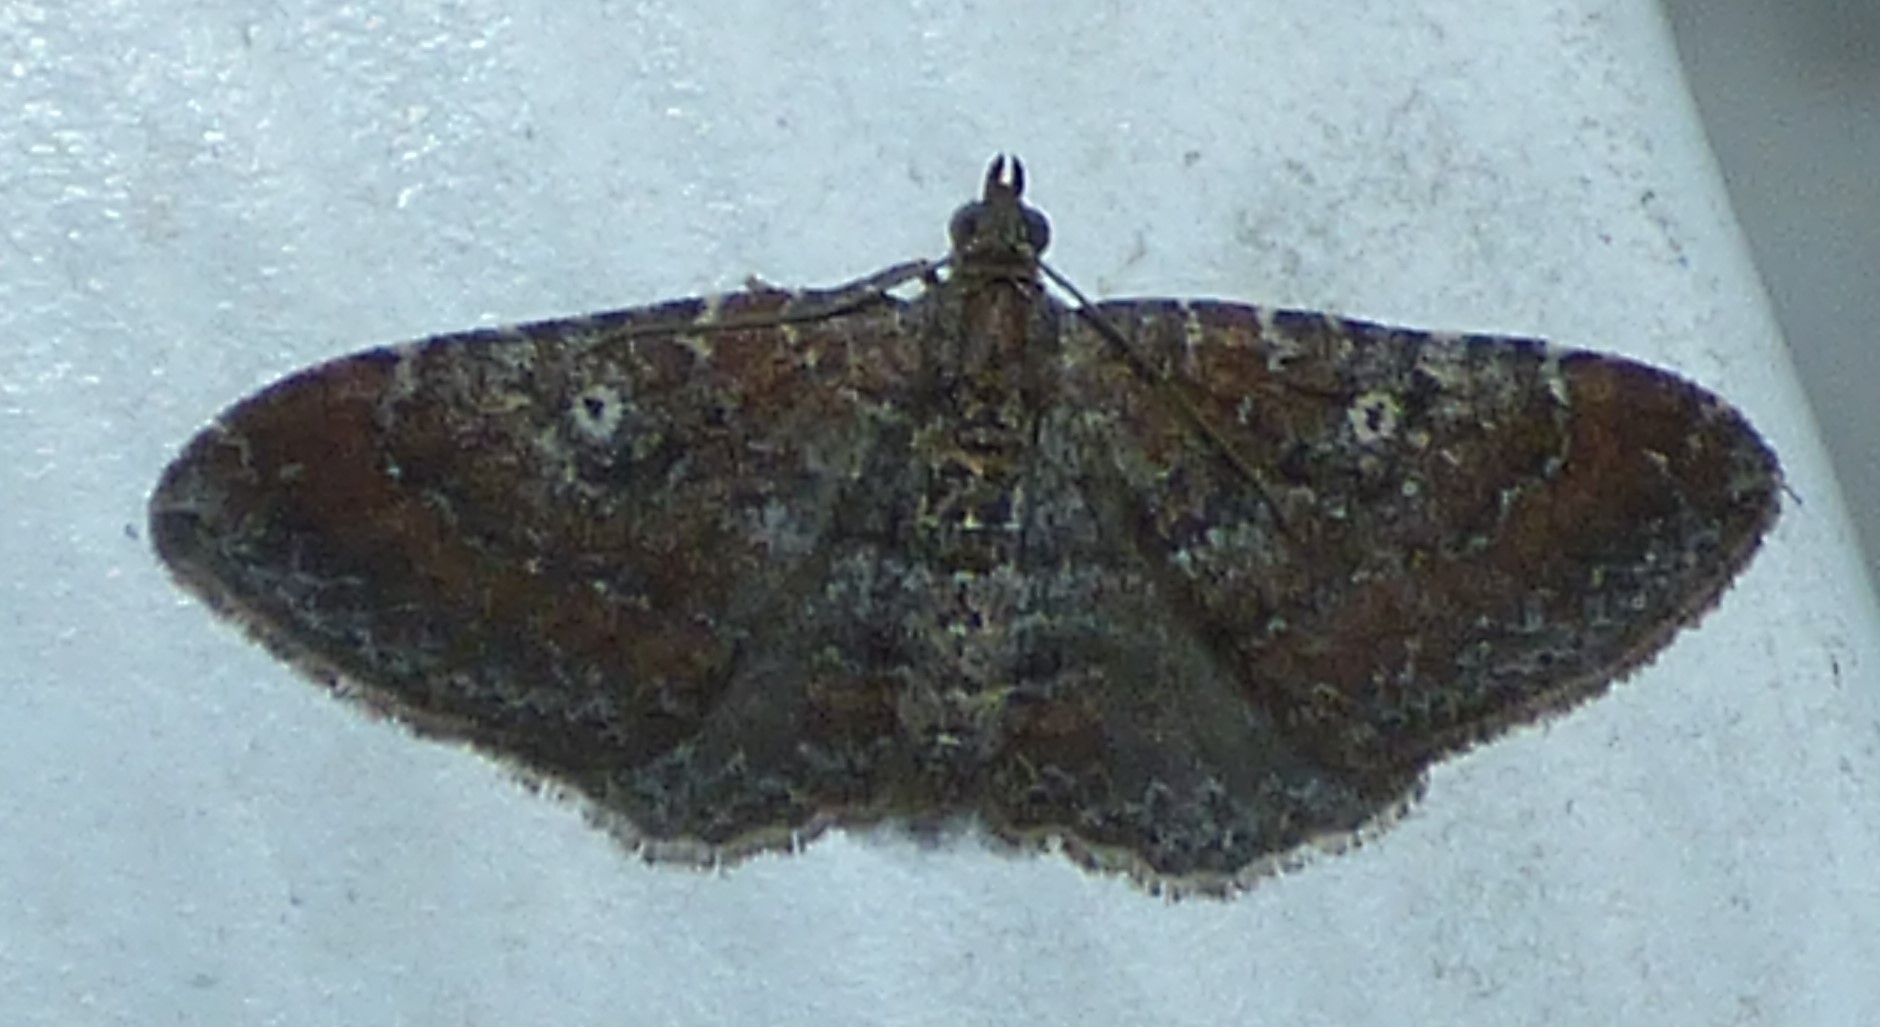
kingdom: Animalia
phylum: Arthropoda
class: Insecta
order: Lepidoptera
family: Geometridae
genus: Orthonama
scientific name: Orthonama obstipata
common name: The gem
